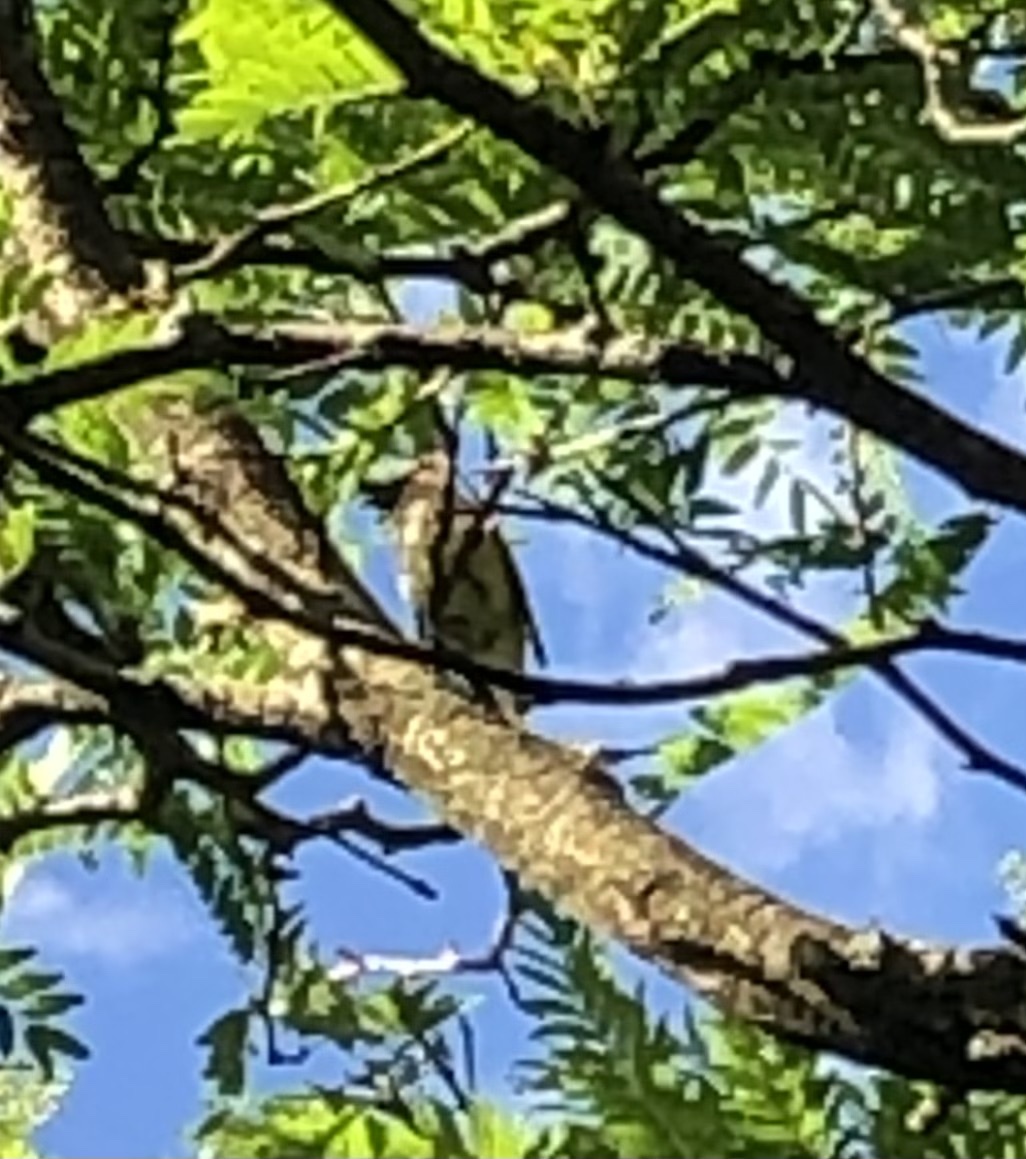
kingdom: Animalia
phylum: Chordata
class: Aves
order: Passeriformes
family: Bombycillidae
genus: Bombycilla
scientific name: Bombycilla cedrorum
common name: Cedar waxwing
